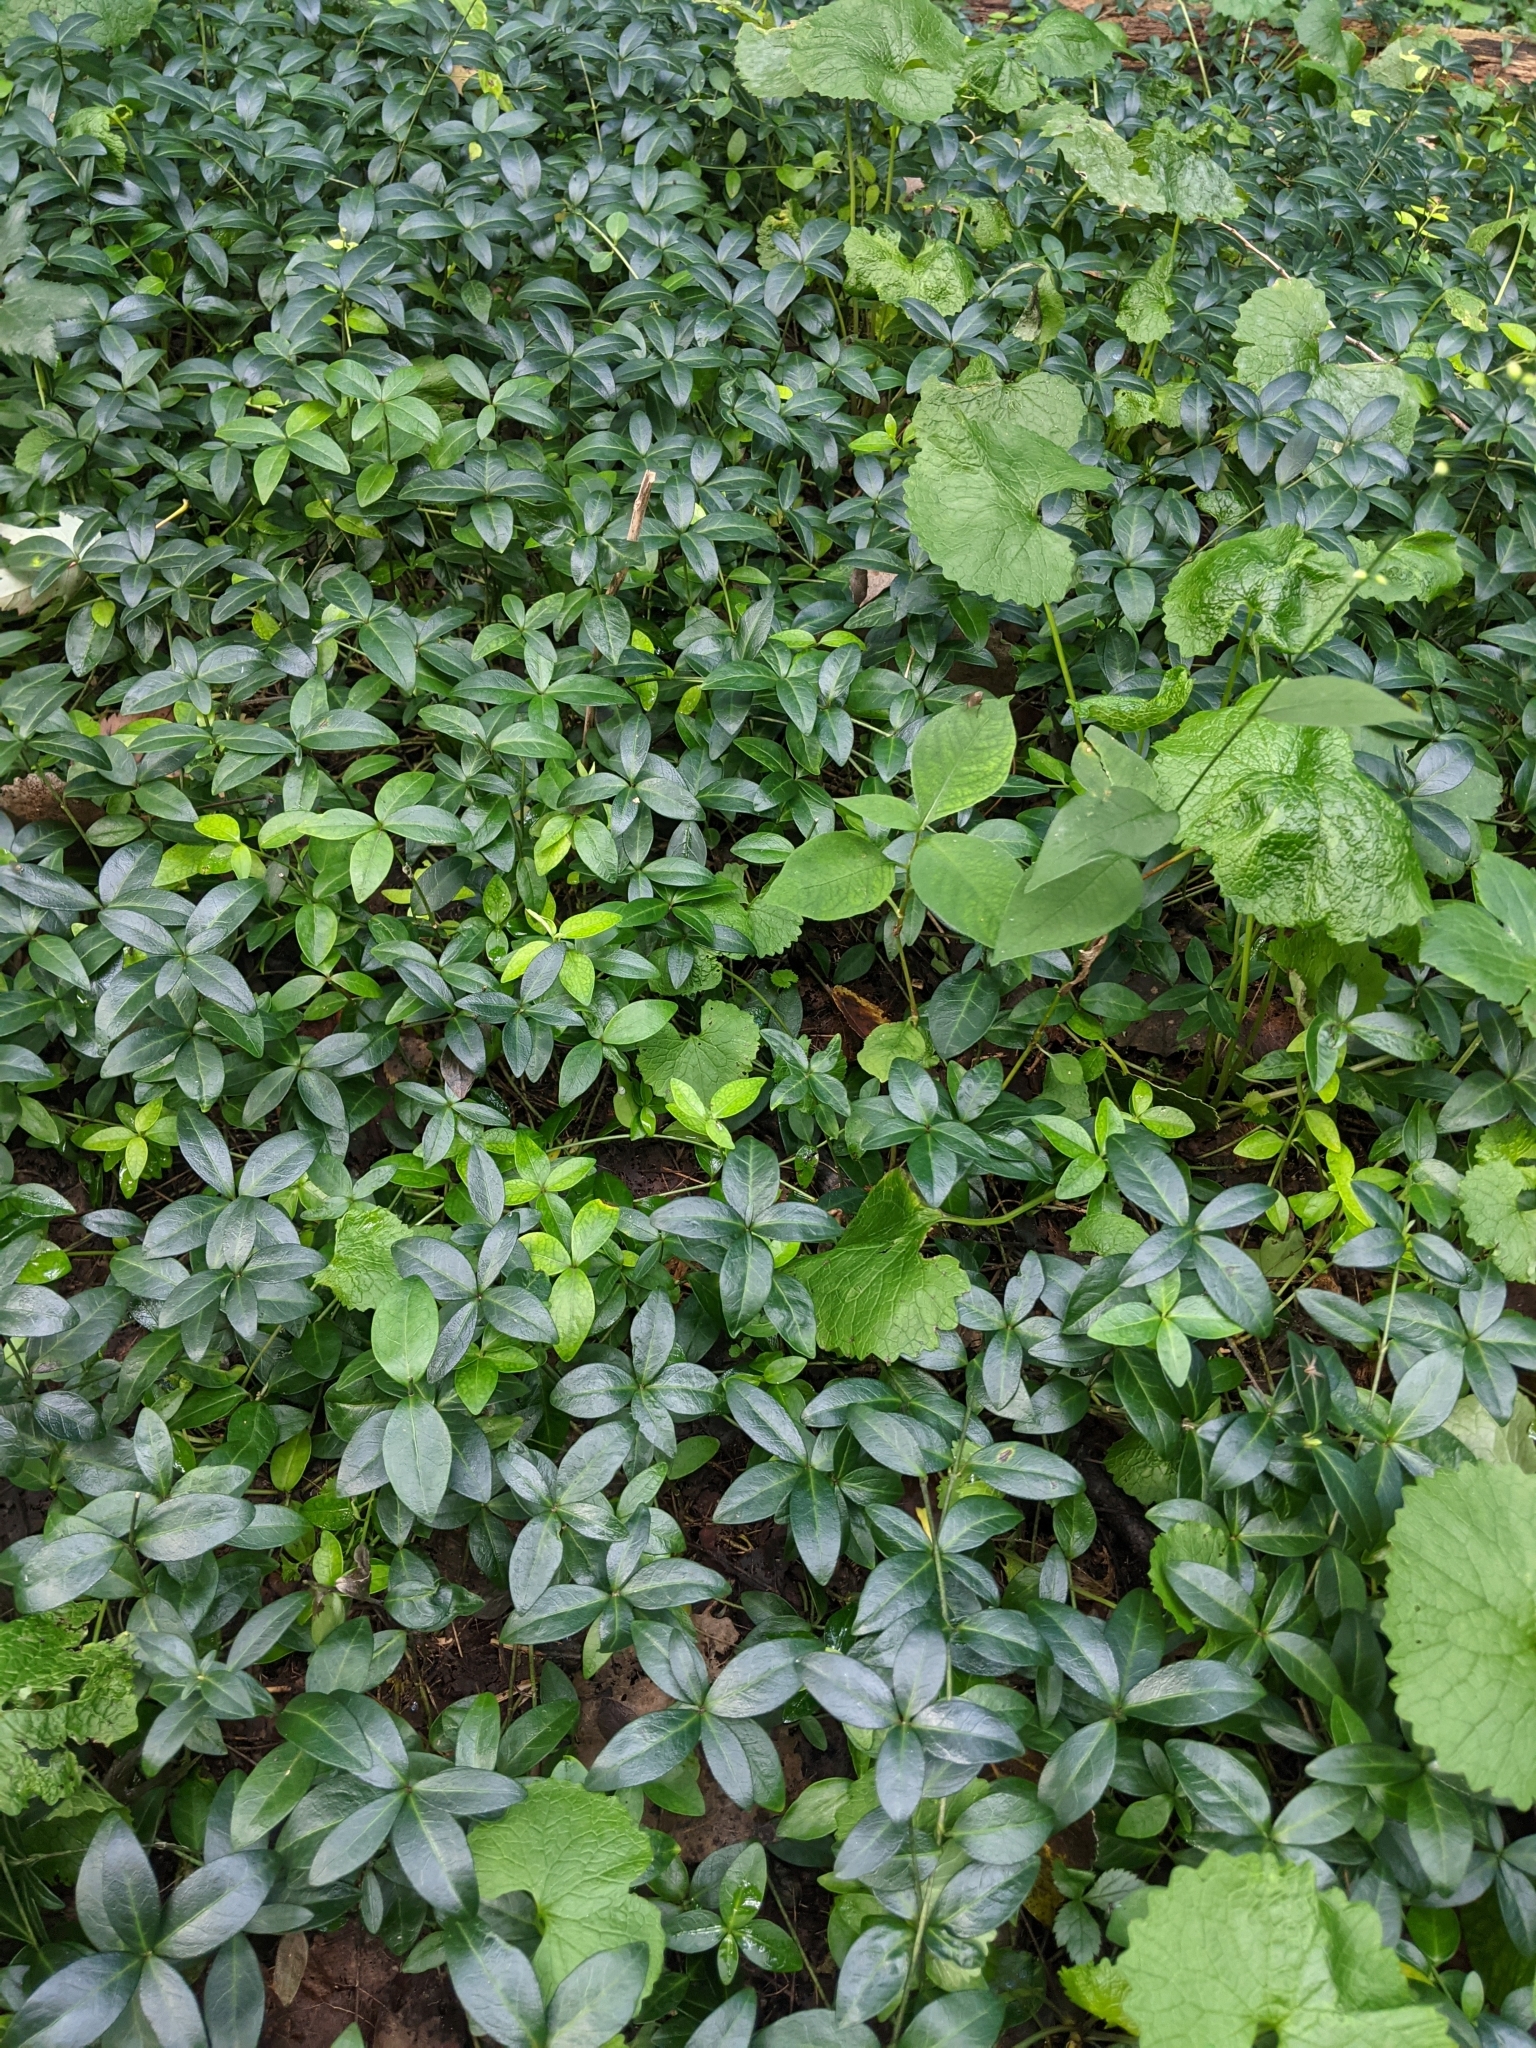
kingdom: Plantae
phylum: Tracheophyta
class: Magnoliopsida
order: Gentianales
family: Apocynaceae
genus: Vinca
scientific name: Vinca minor
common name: Lesser periwinkle
